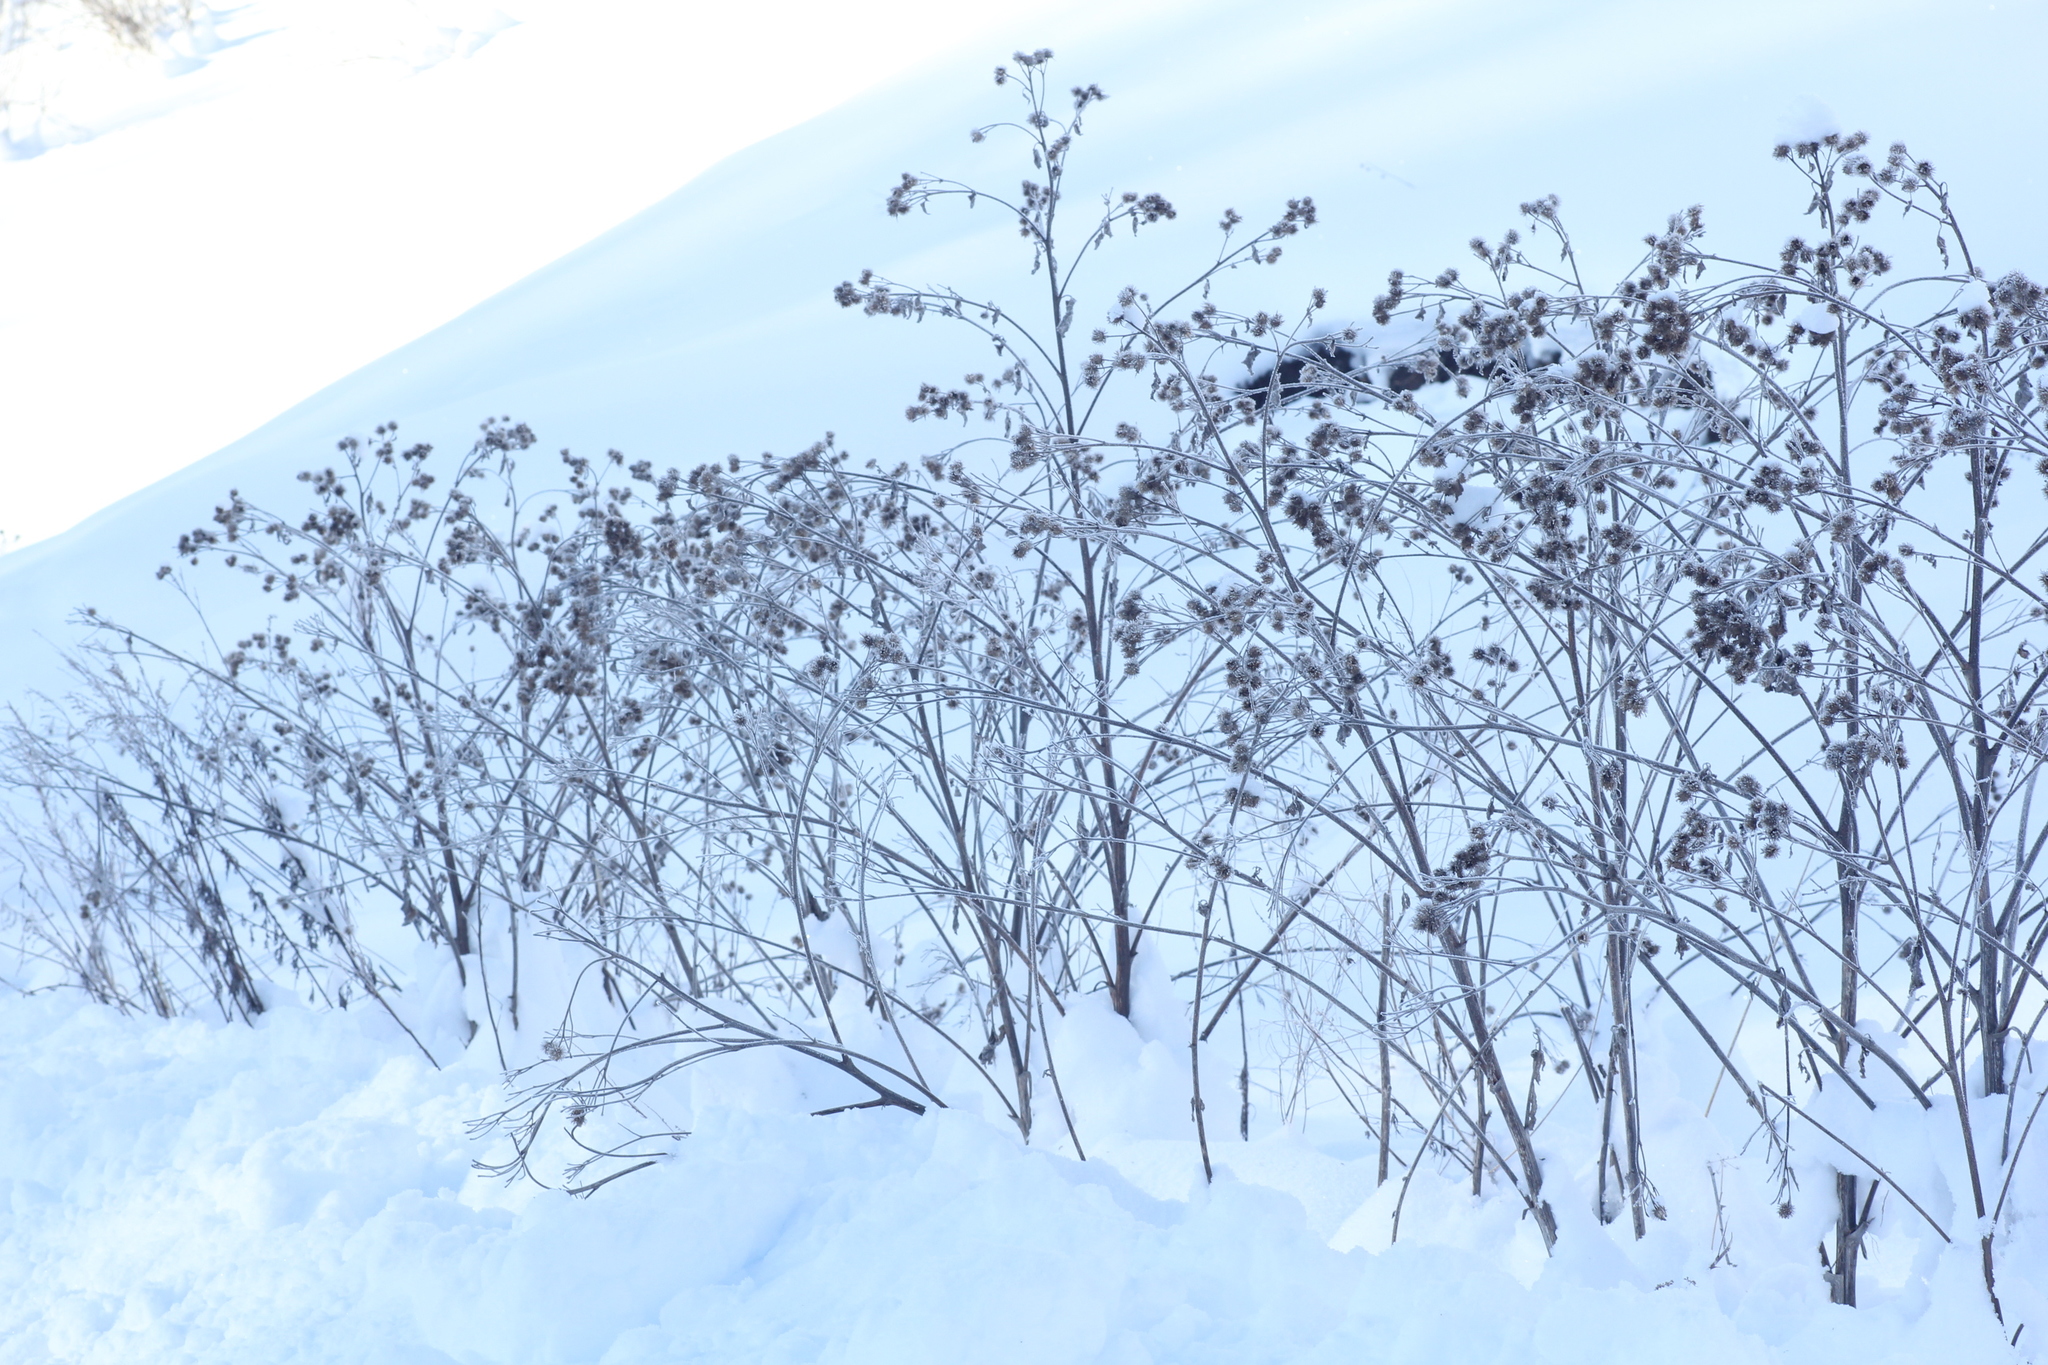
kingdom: Plantae
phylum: Tracheophyta
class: Magnoliopsida
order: Asterales
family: Asteraceae
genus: Arctium
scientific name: Arctium tomentosum
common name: Woolly burdock
